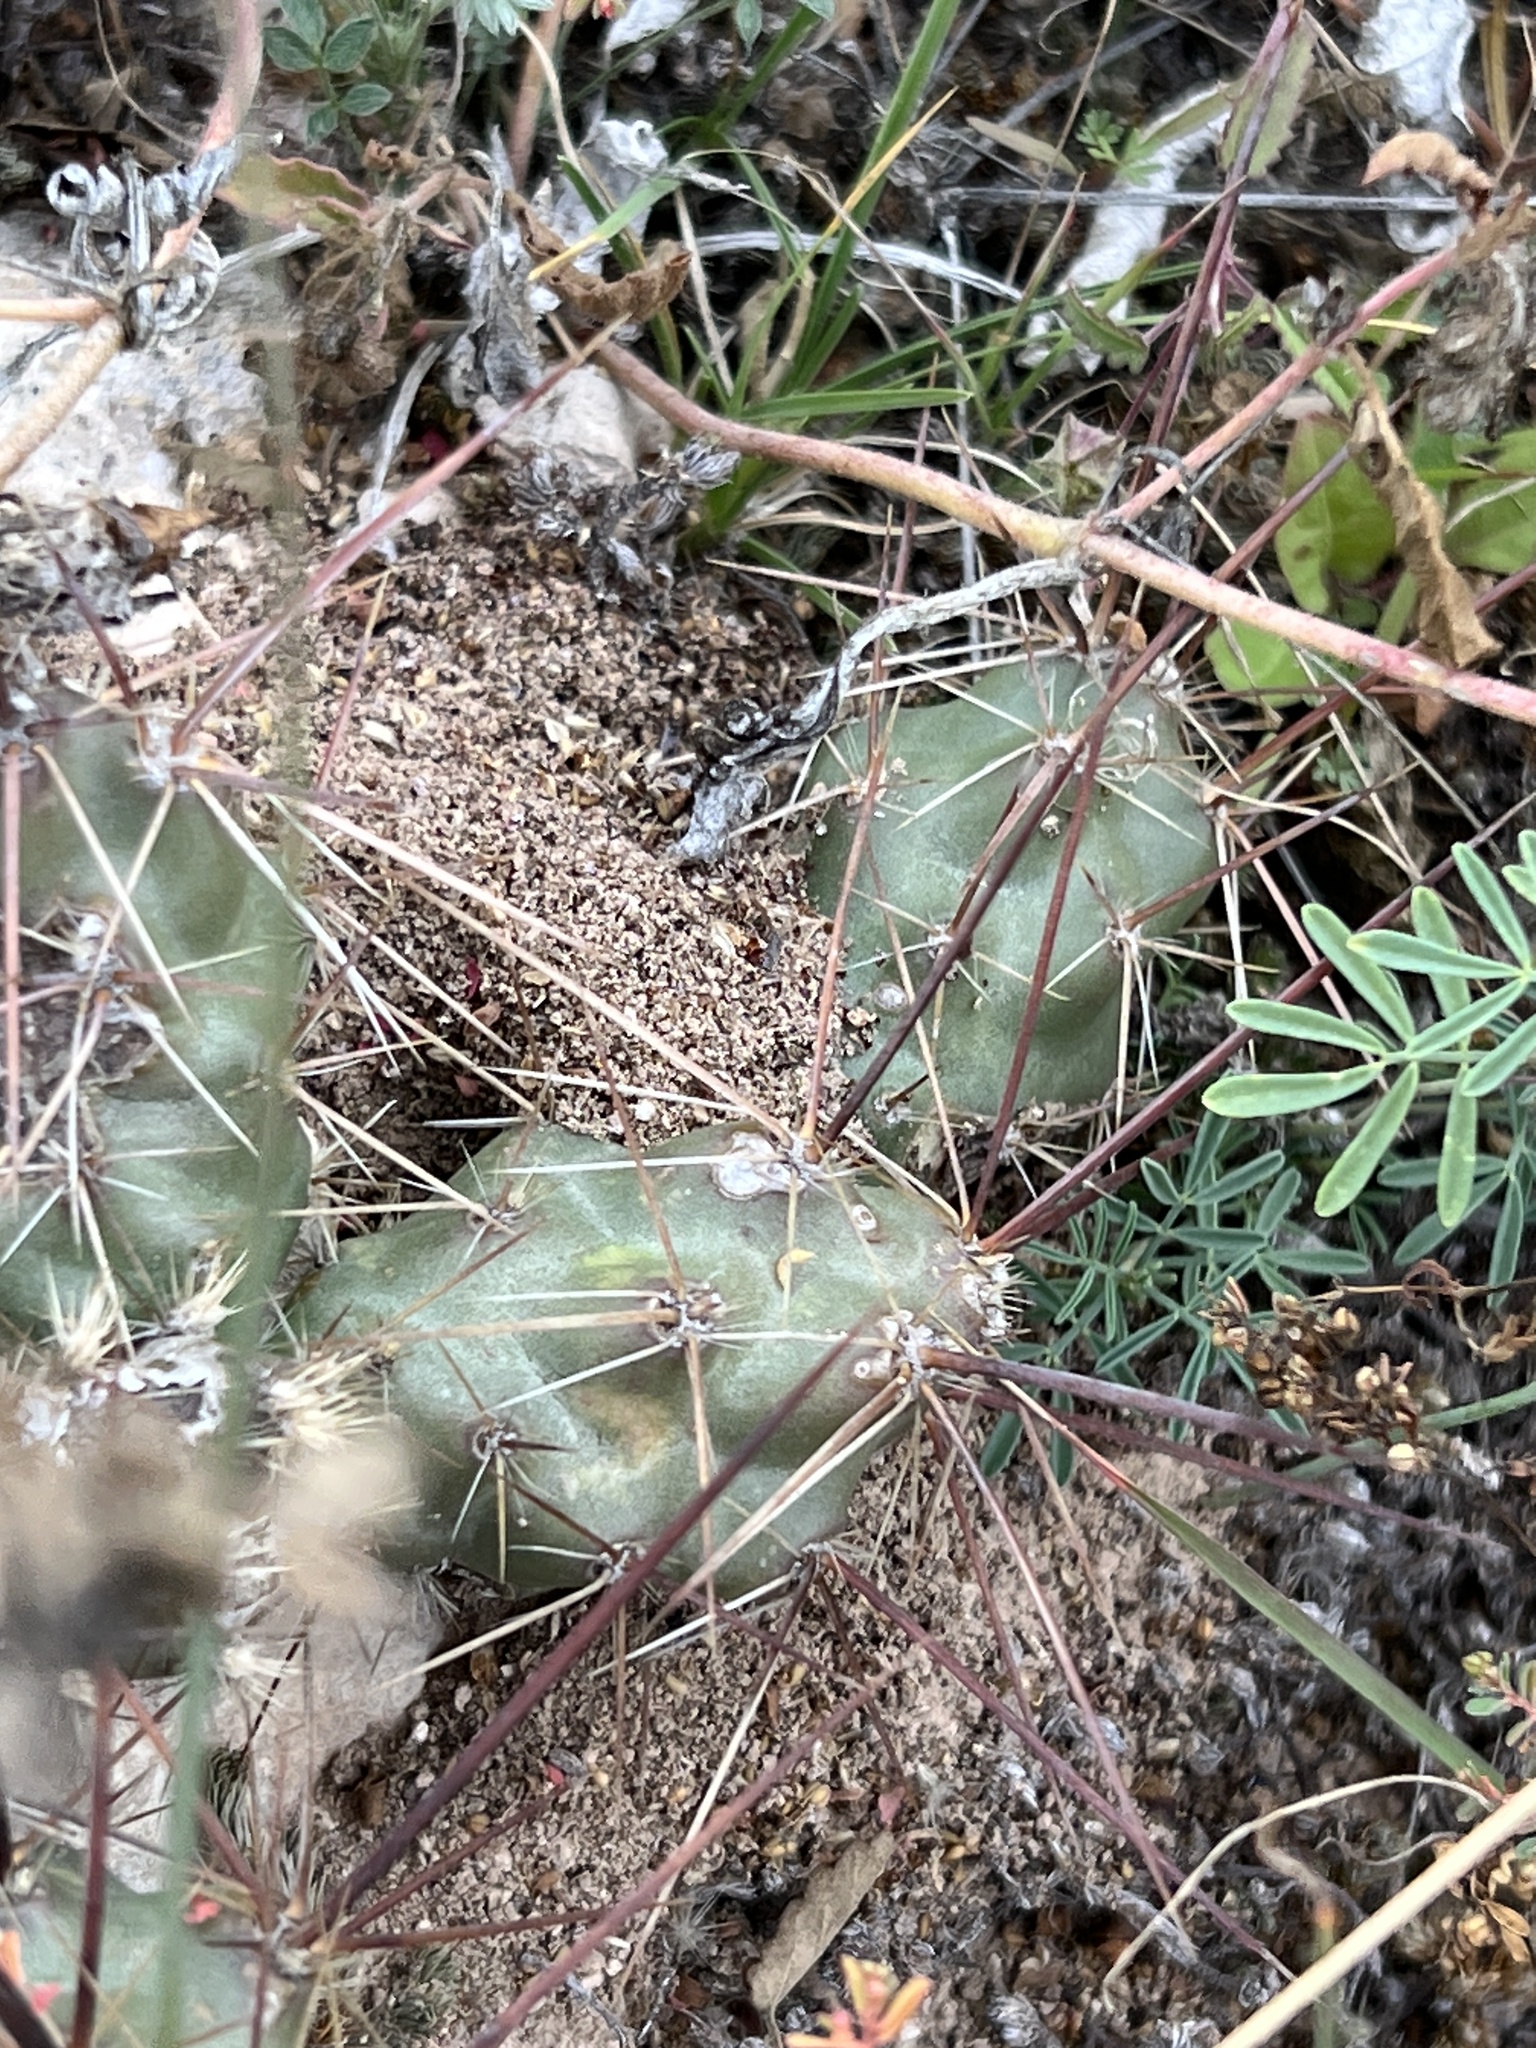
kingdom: Plantae
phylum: Tracheophyta
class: Magnoliopsida
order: Caryophyllales
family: Cactaceae
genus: Grusonia
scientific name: Grusonia schottii
